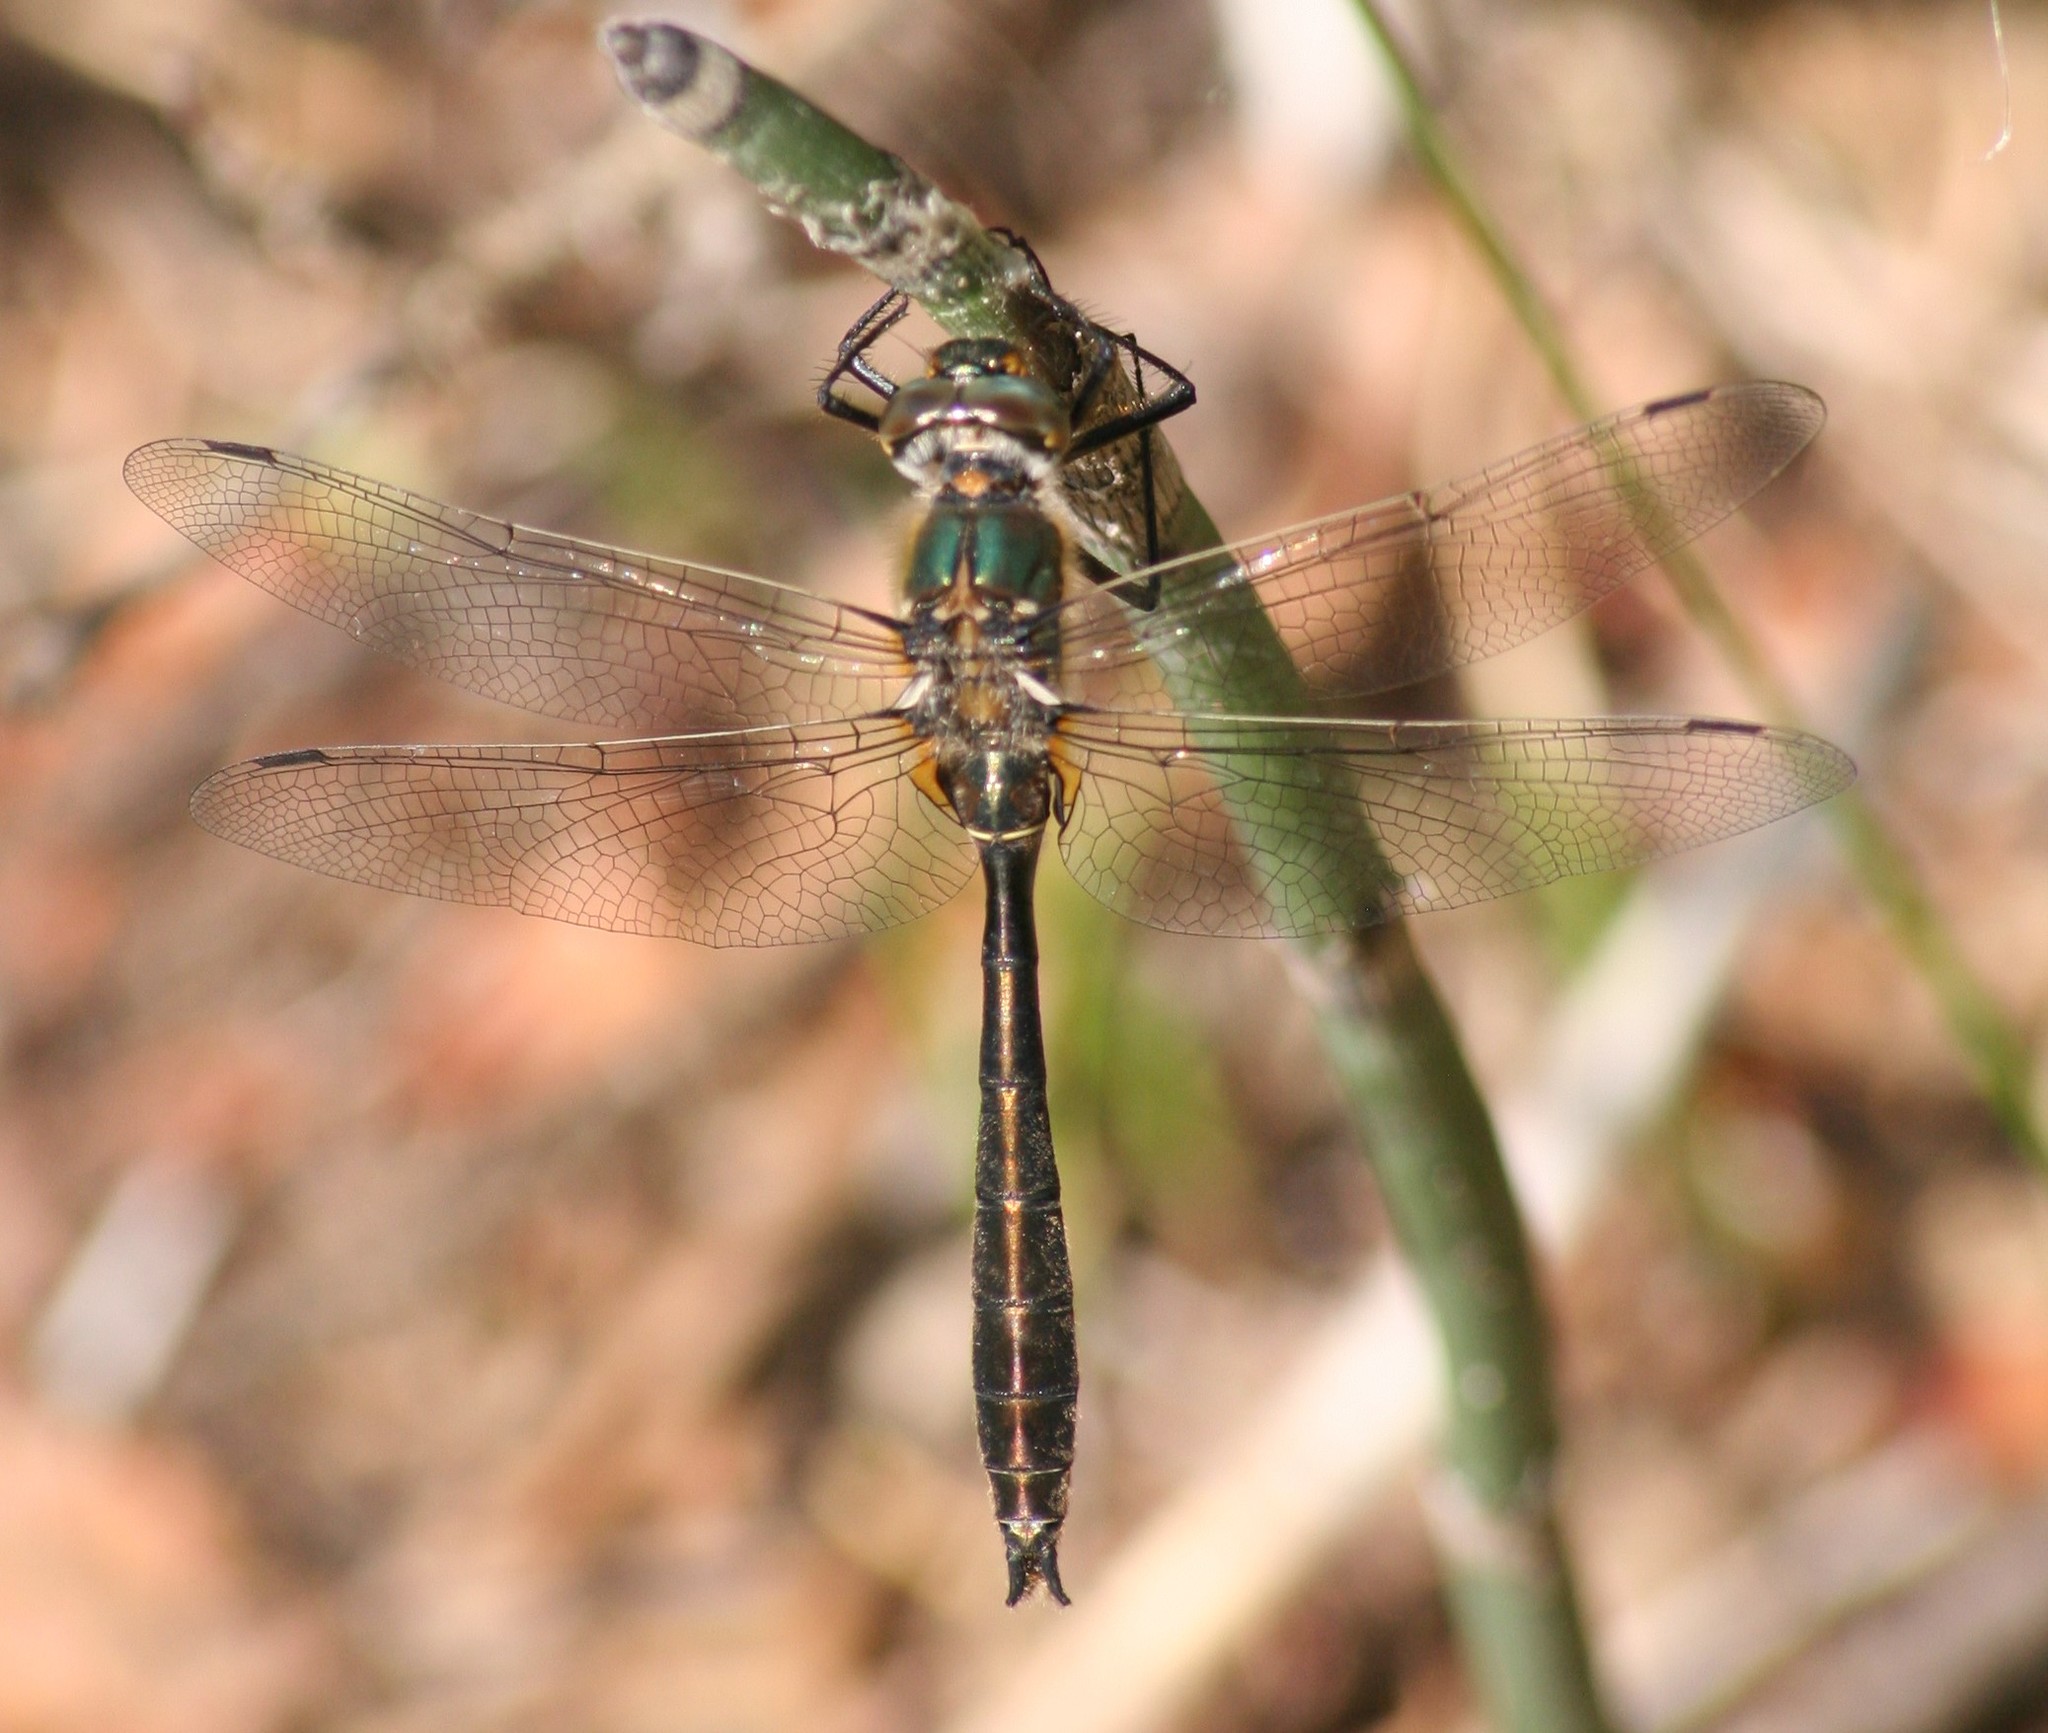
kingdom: Animalia
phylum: Arthropoda
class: Insecta
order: Odonata
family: Corduliidae
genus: Cordulia
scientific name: Cordulia shurtleffii
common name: American emerald
